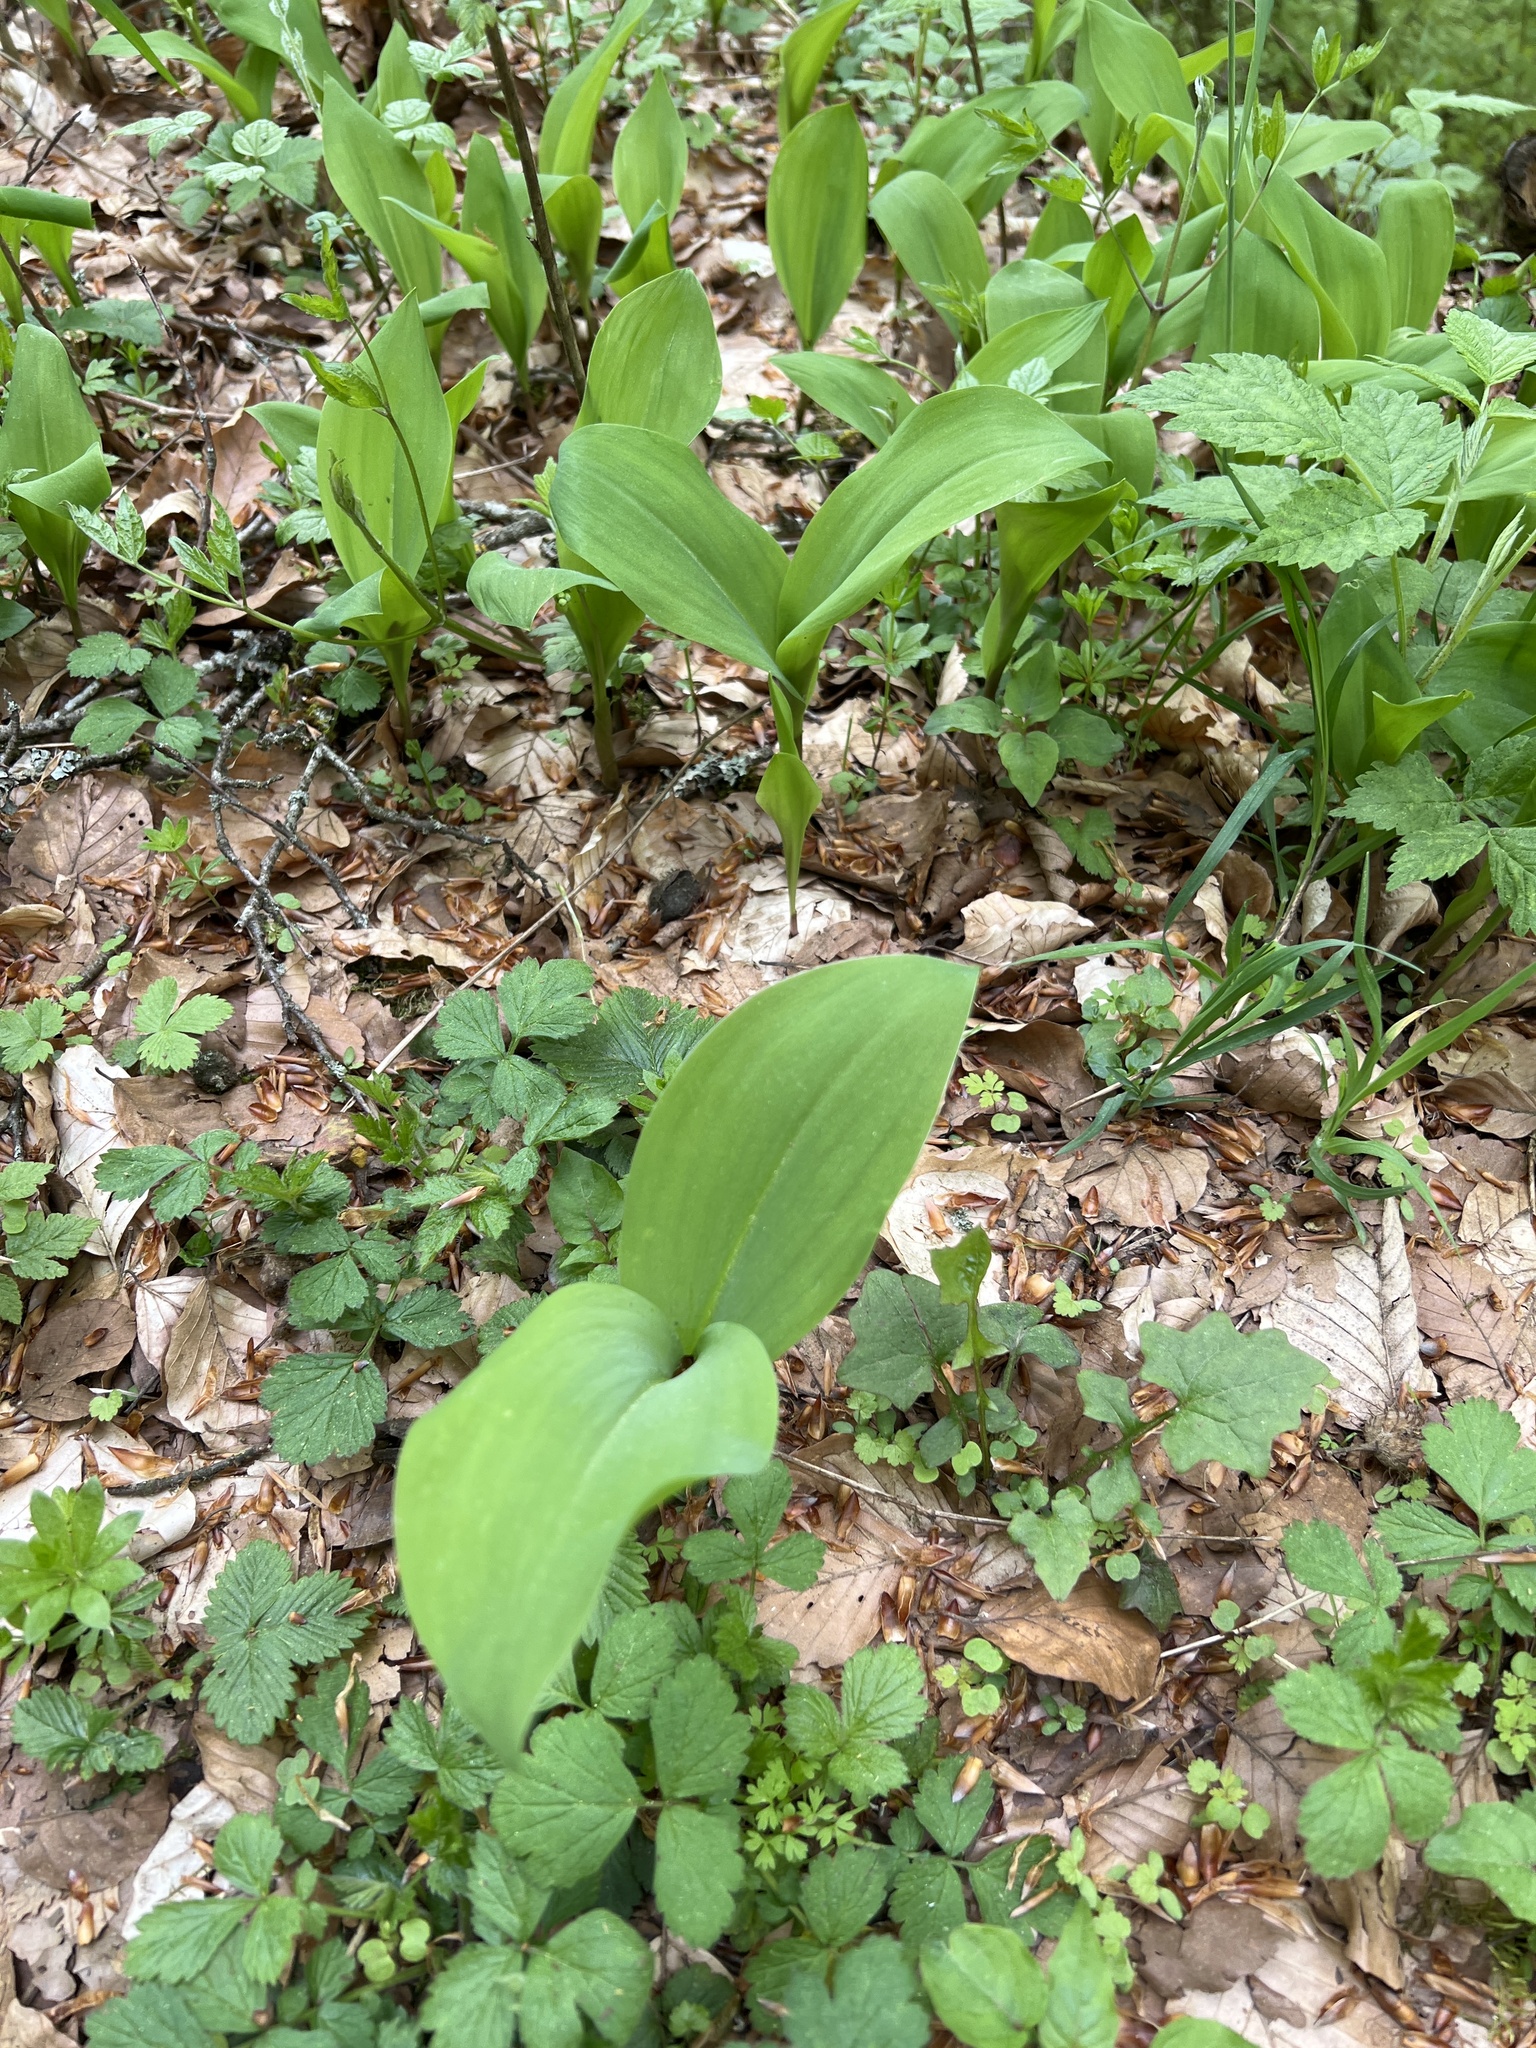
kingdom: Plantae
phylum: Tracheophyta
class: Liliopsida
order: Asparagales
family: Asparagaceae
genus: Convallaria
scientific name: Convallaria majalis
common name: Lily-of-the-valley
